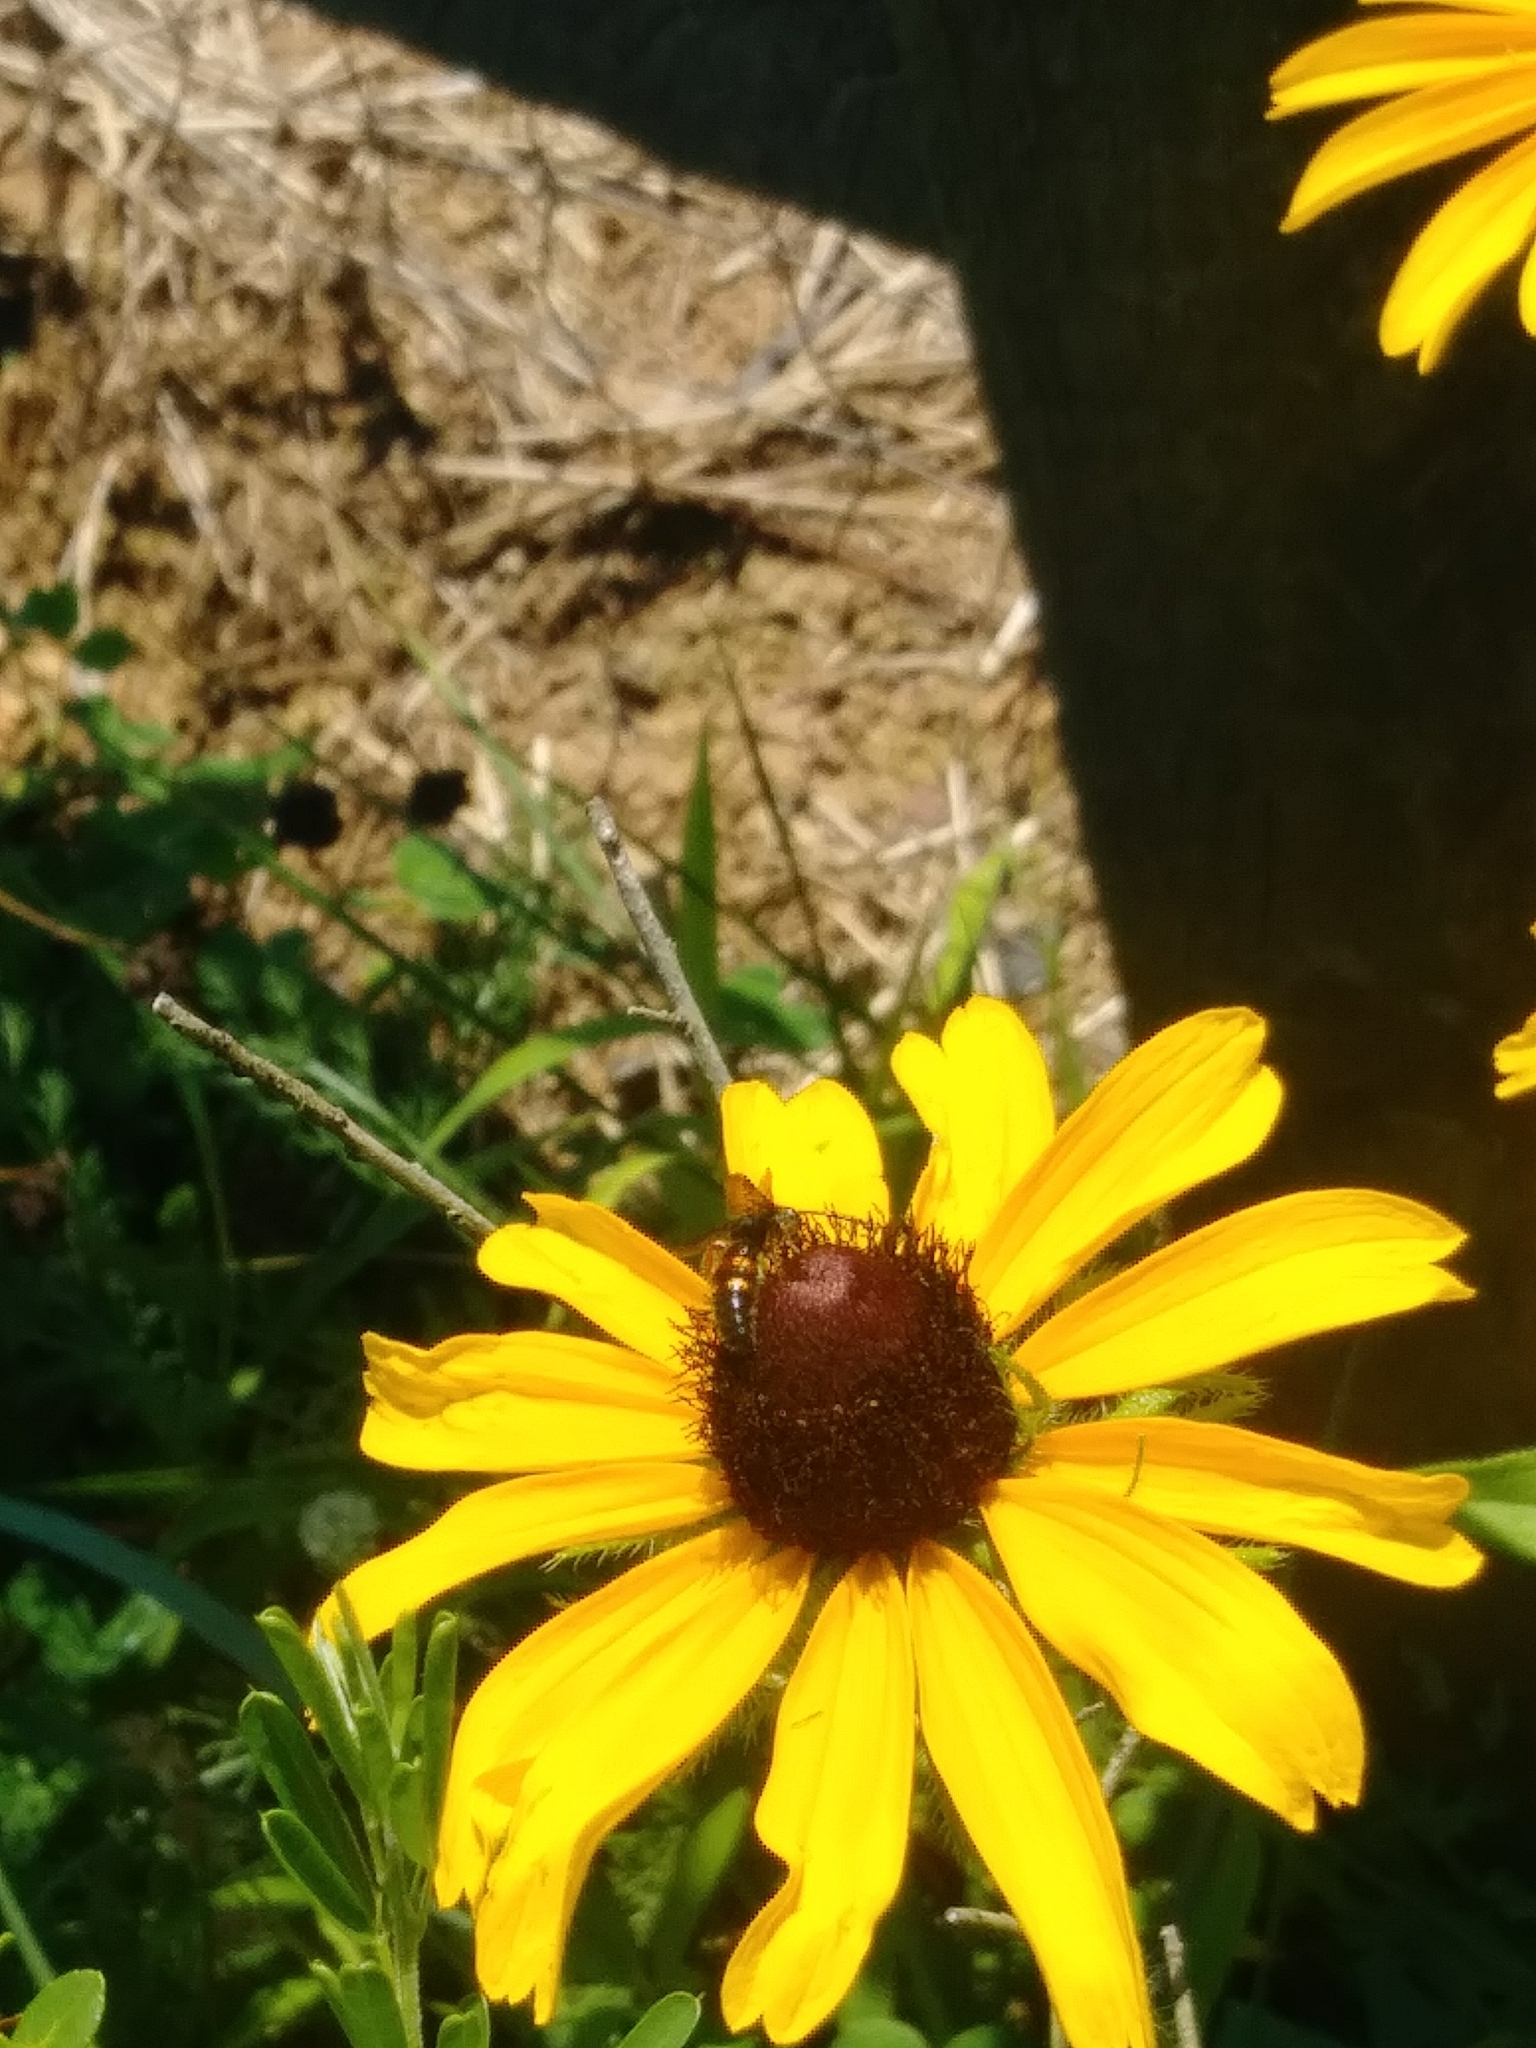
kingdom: Animalia
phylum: Arthropoda
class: Insecta
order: Hymenoptera
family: Scoliidae
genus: Scolia
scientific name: Scolia nobilitata
